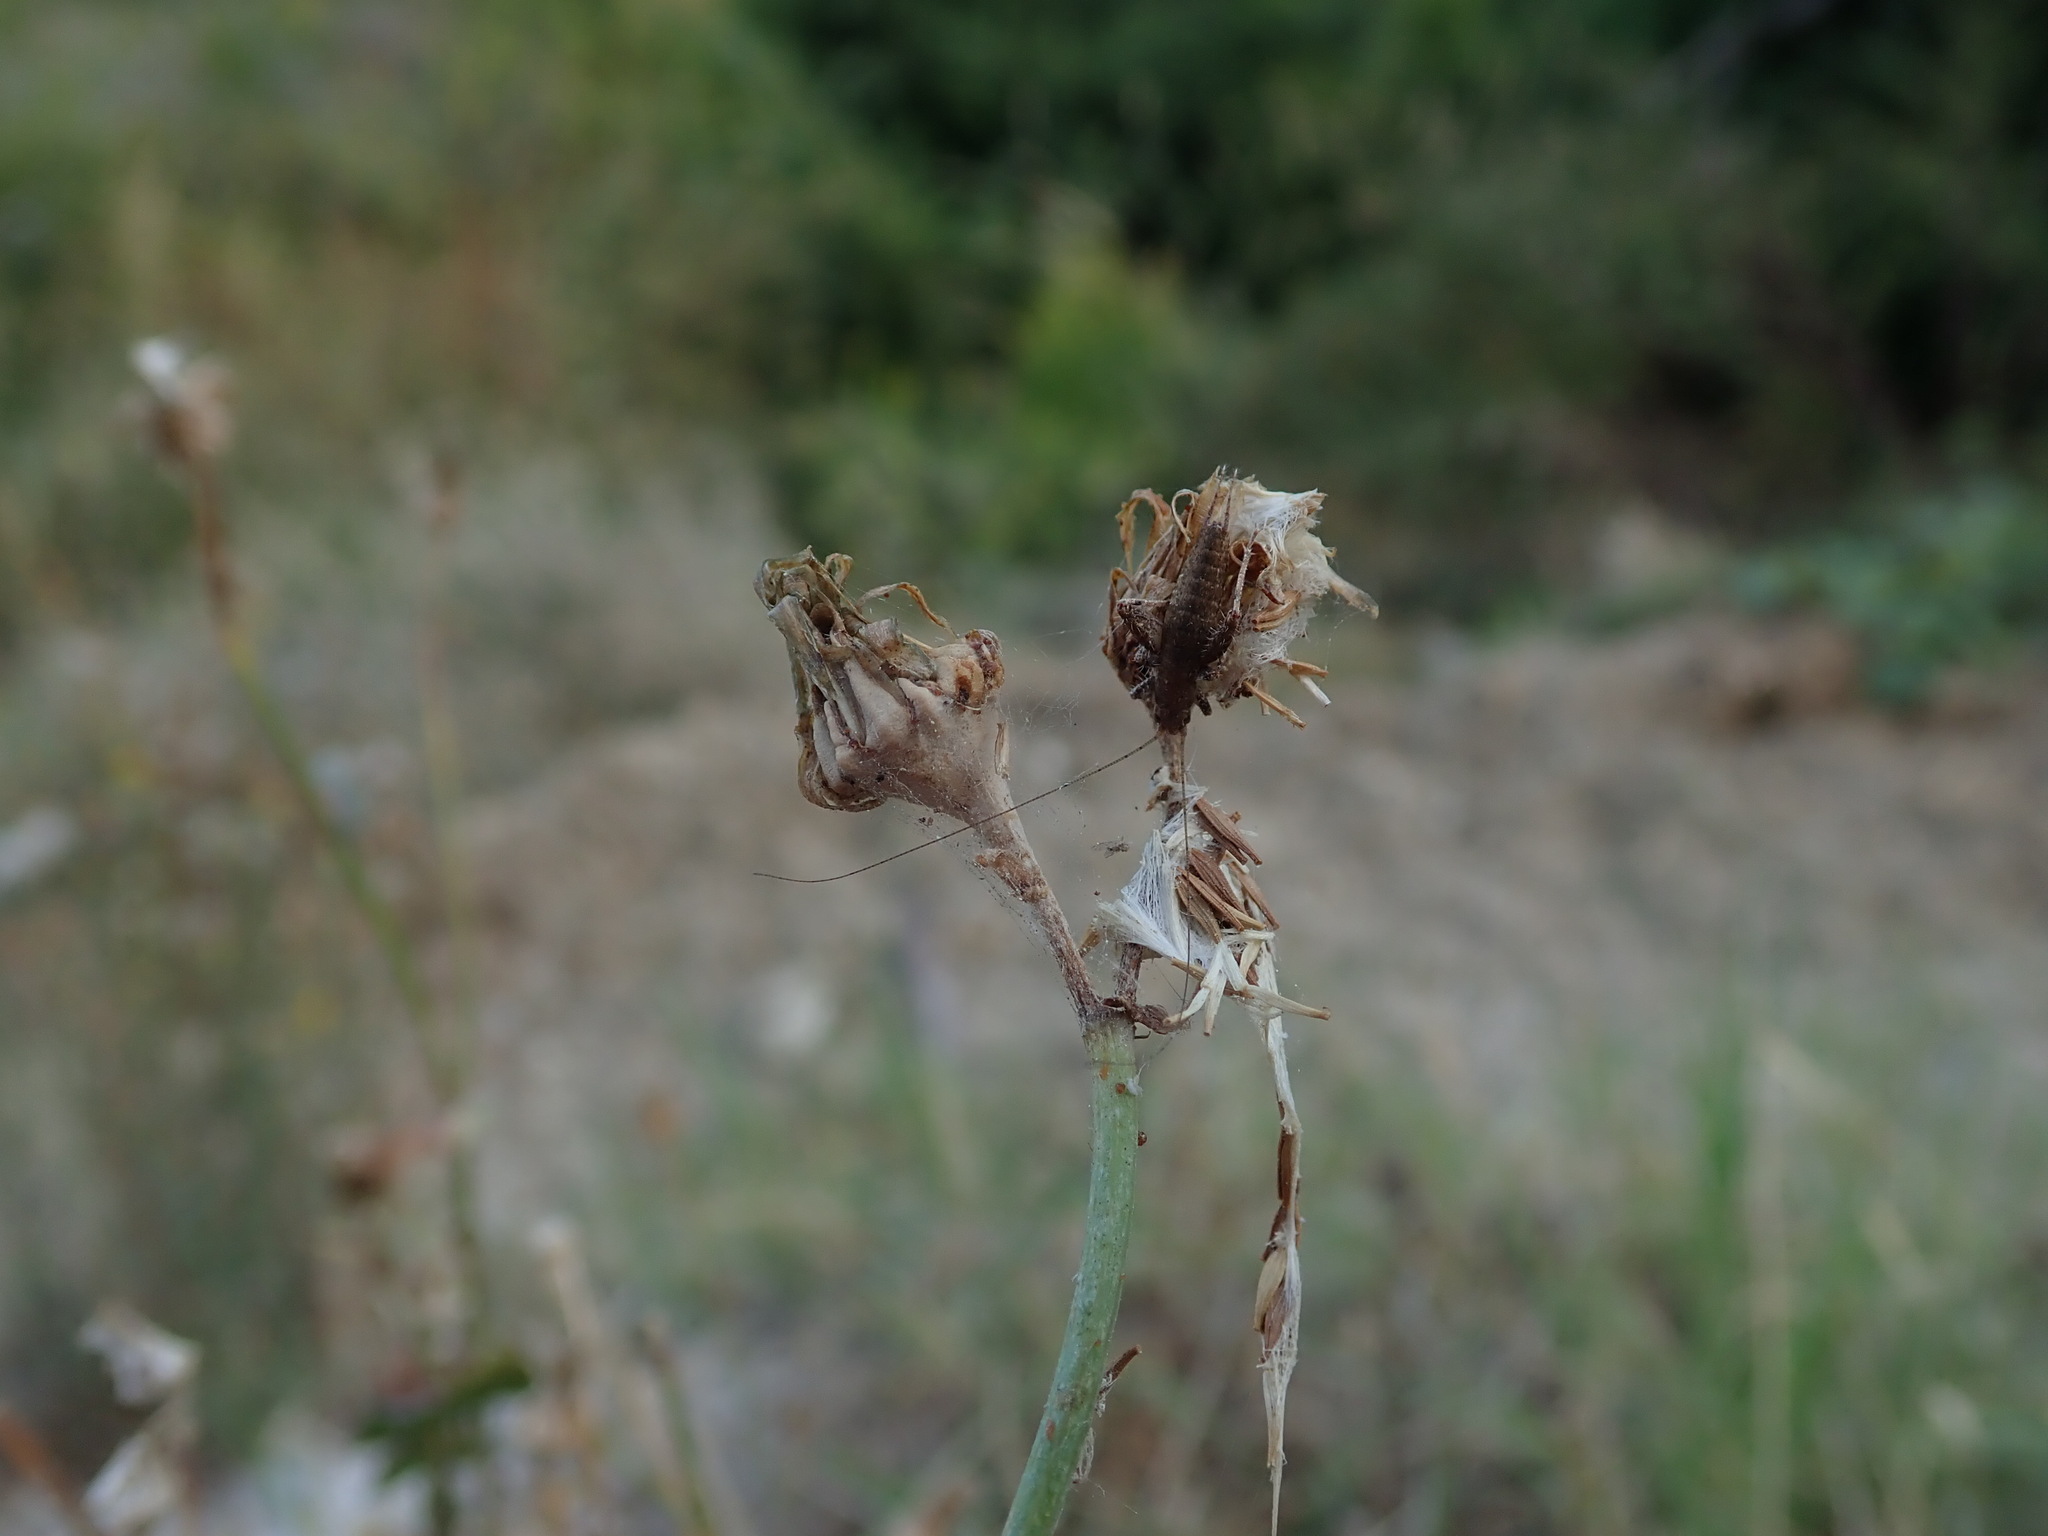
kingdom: Animalia
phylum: Arthropoda
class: Insecta
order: Orthoptera
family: Mogoplistidae
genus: Arachnocephalus
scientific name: Arachnocephalus vestitus
